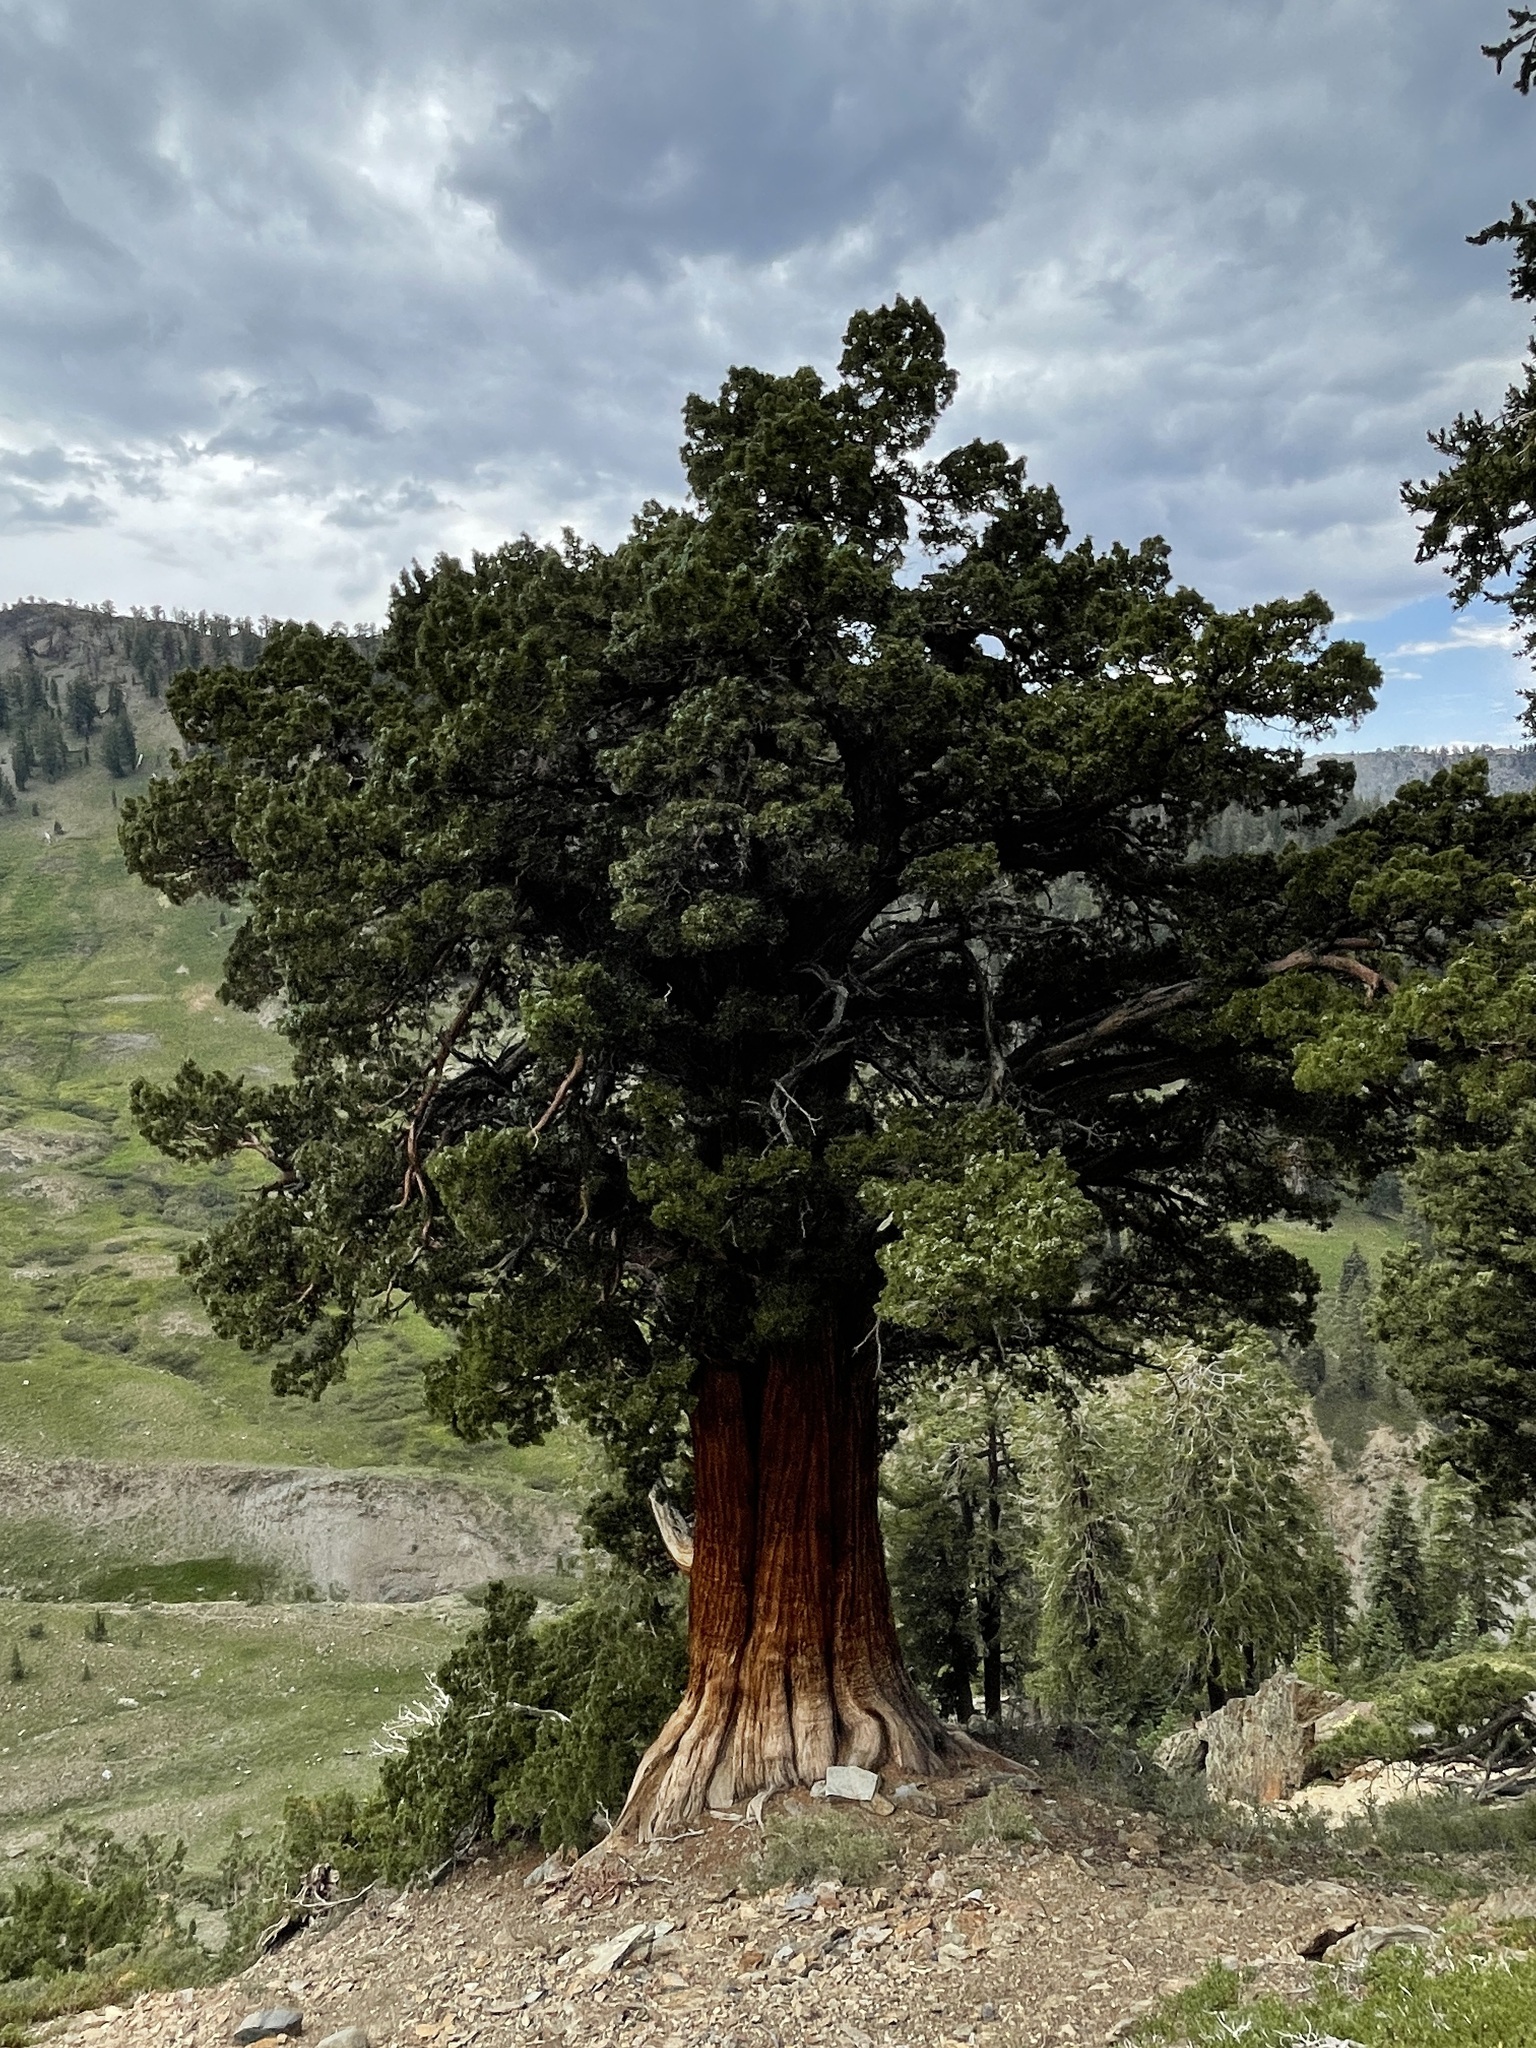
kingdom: Plantae
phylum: Tracheophyta
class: Pinopsida
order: Pinales
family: Cupressaceae
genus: Juniperus
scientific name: Juniperus occidentalis
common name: Western juniper
